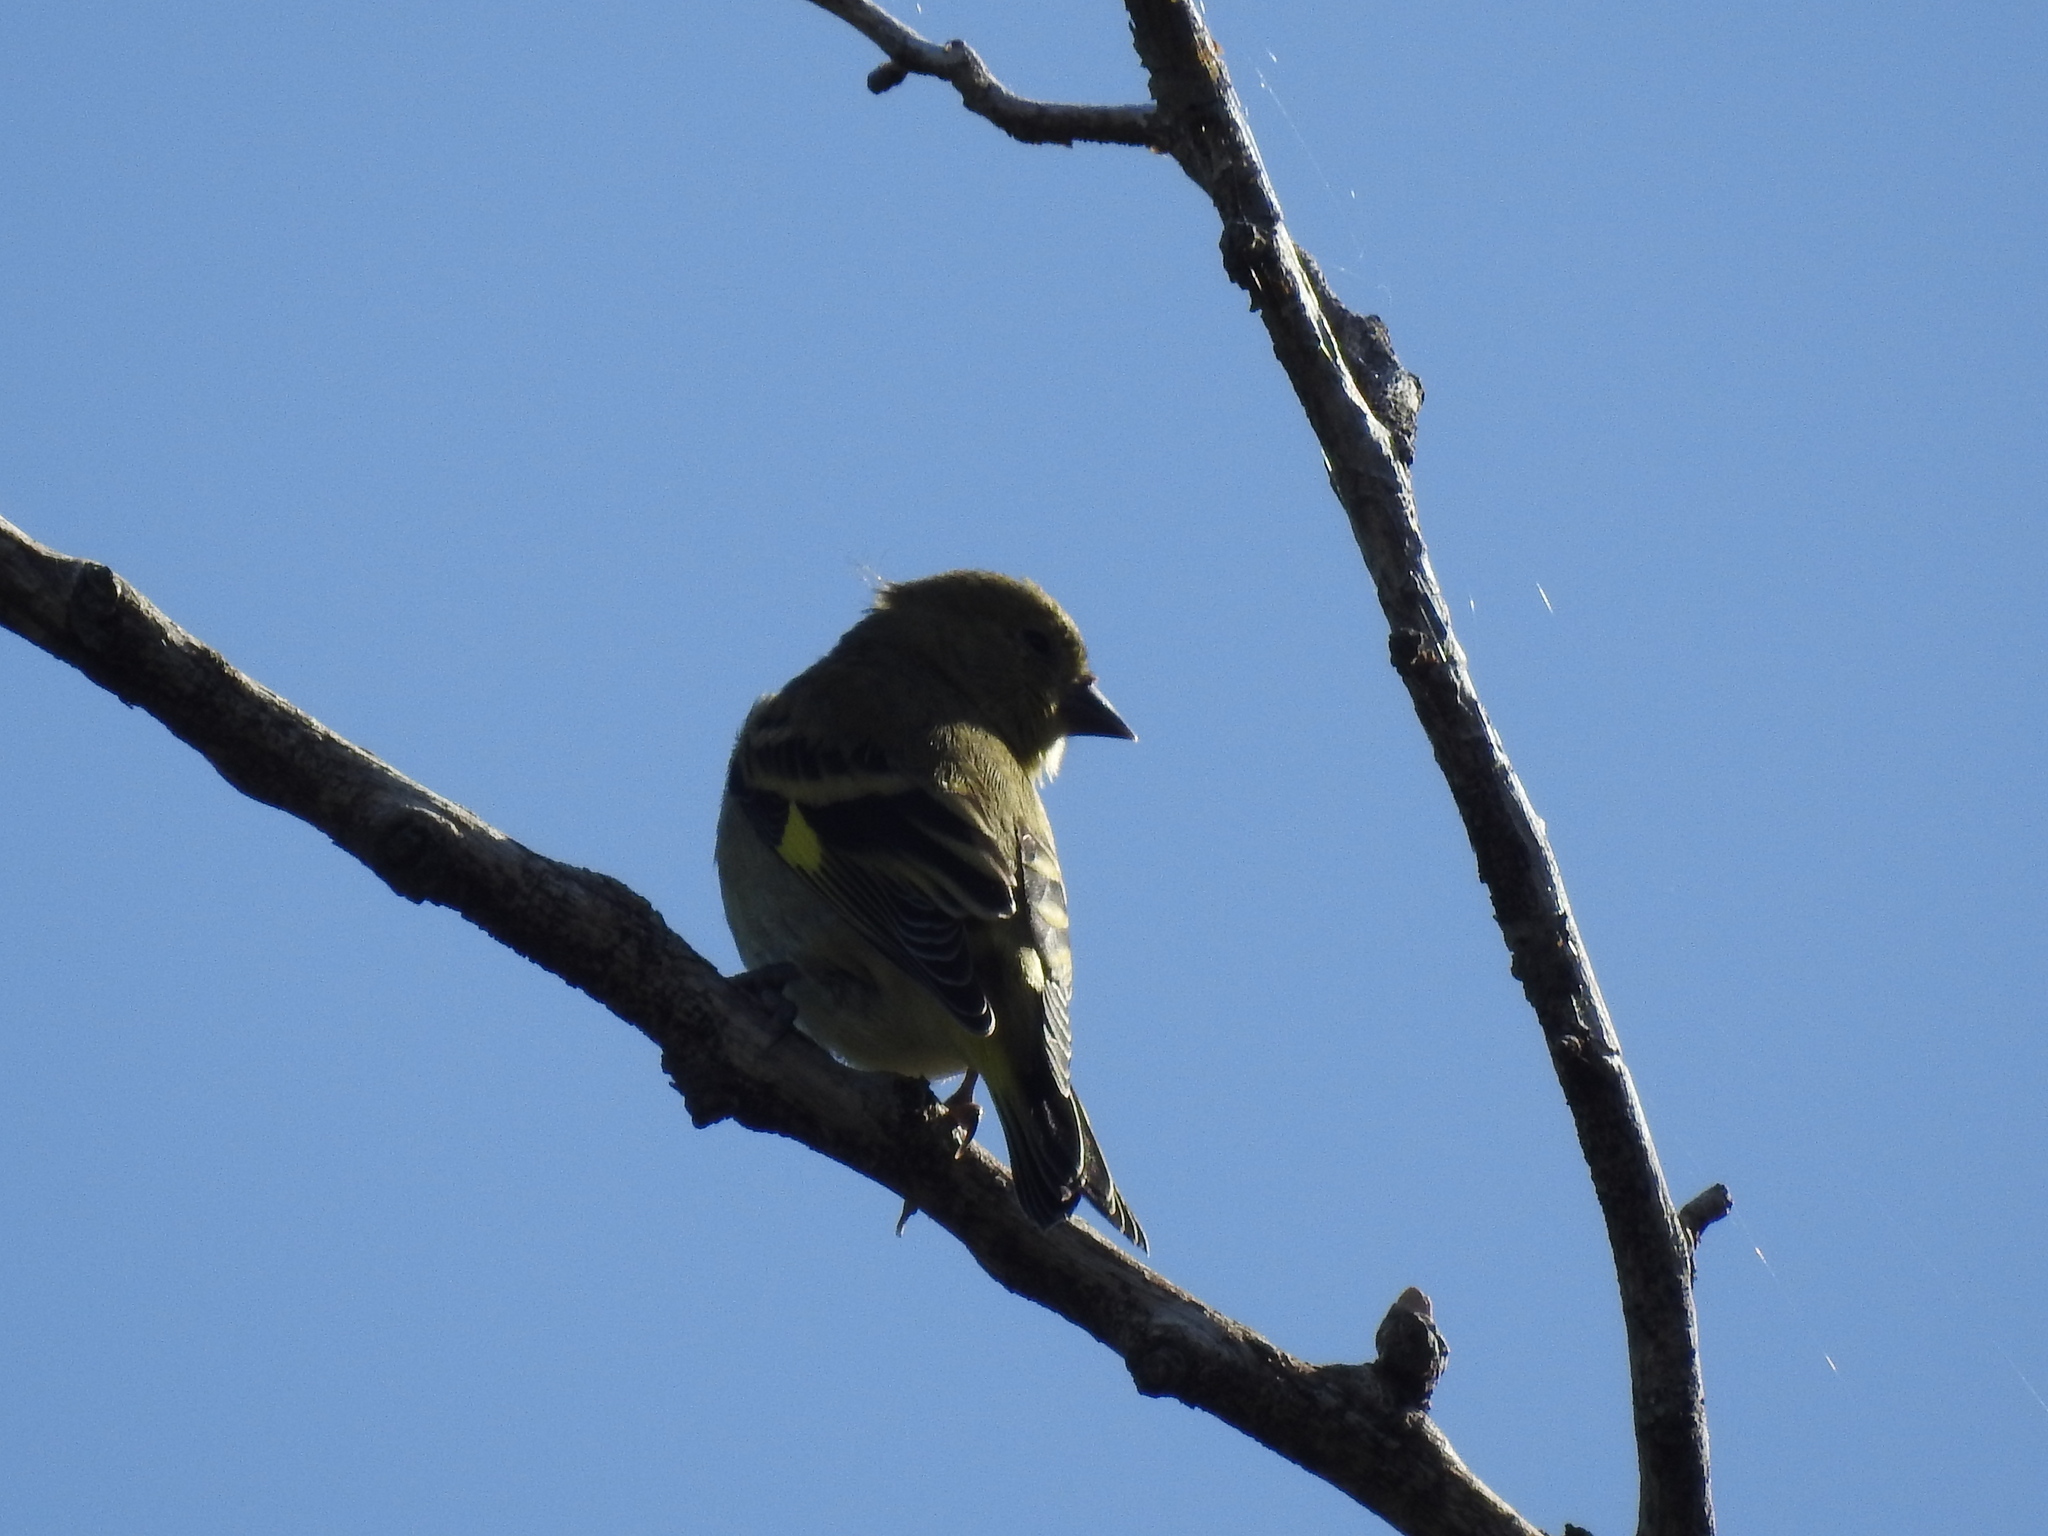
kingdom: Animalia
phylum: Chordata
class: Aves
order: Passeriformes
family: Fringillidae
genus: Spinus
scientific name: Spinus magellanicus
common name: Hooded siskin
